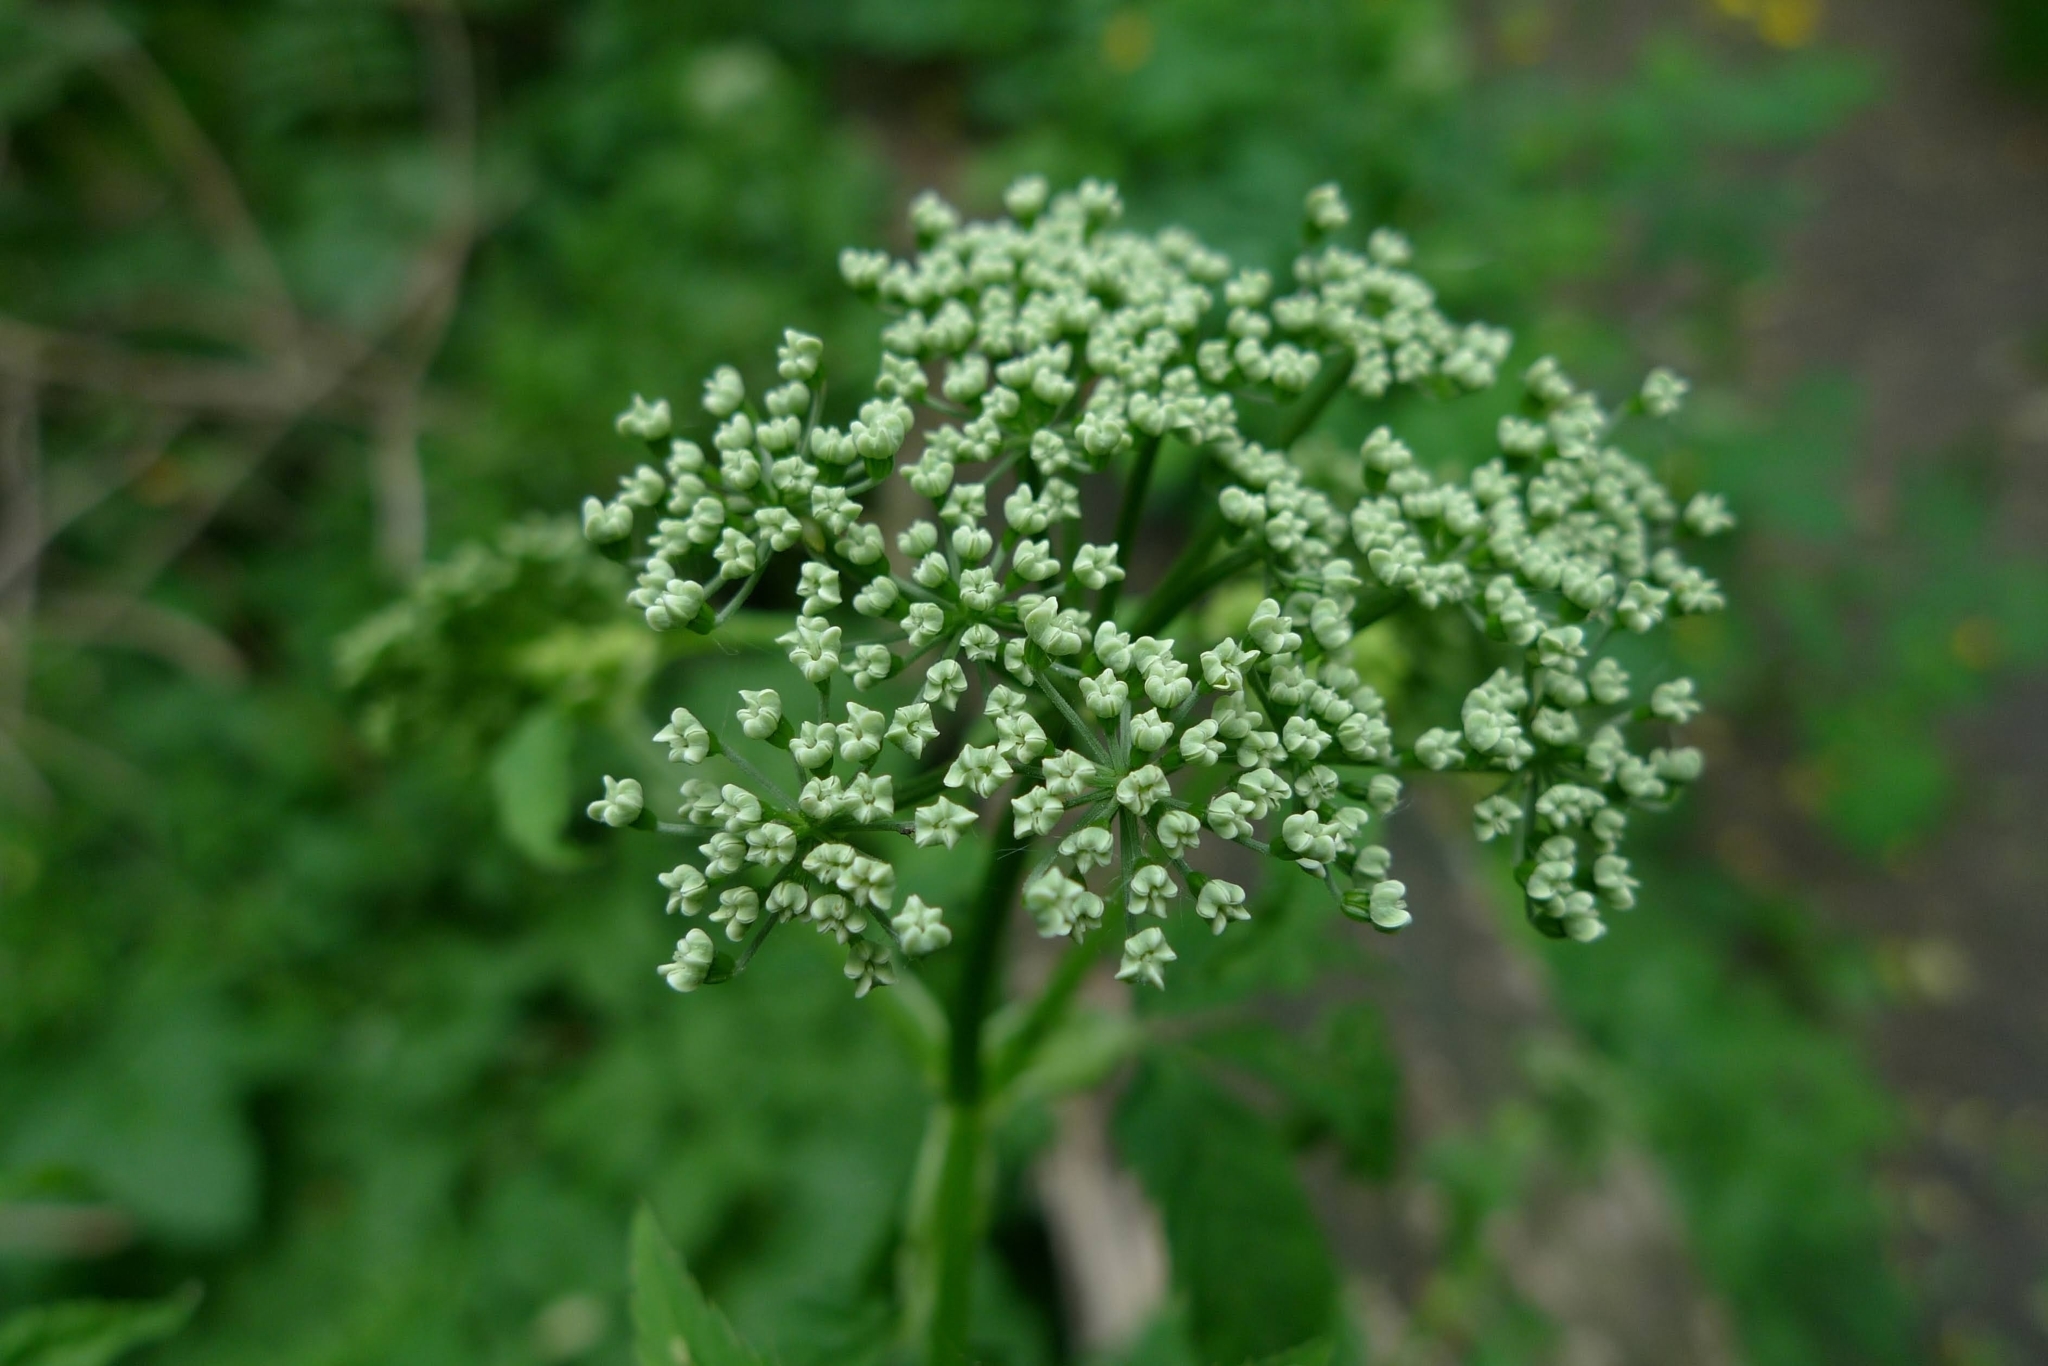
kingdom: Plantae
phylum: Tracheophyta
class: Magnoliopsida
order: Apiales
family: Apiaceae
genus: Aegopodium
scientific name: Aegopodium podagraria
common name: Ground-elder
